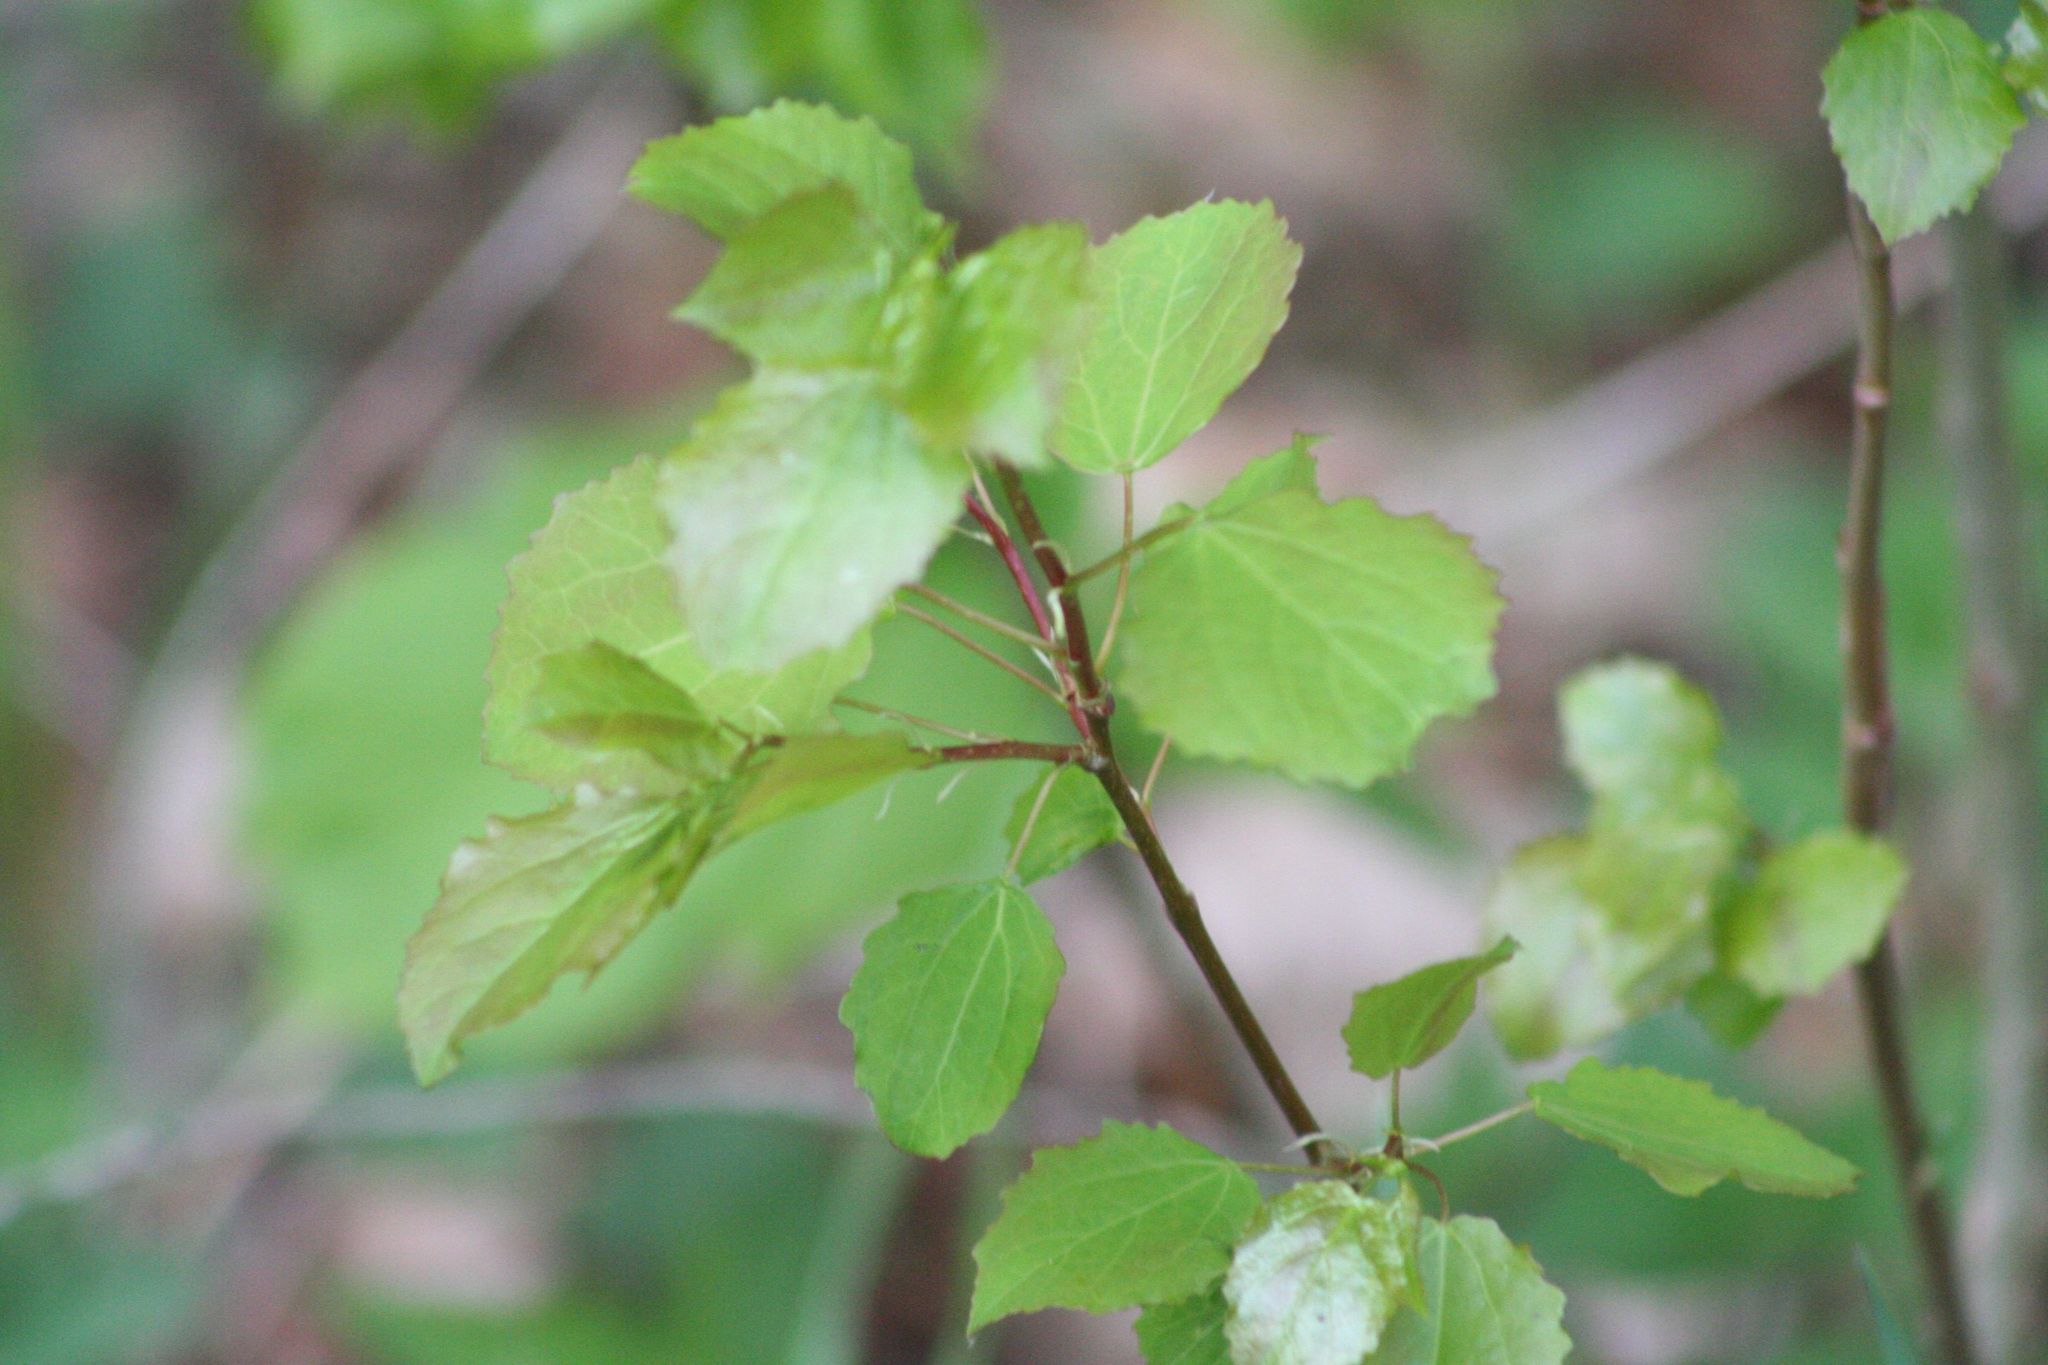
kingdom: Plantae
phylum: Tracheophyta
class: Magnoliopsida
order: Malpighiales
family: Salicaceae
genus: Populus
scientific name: Populus tremula
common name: European aspen
